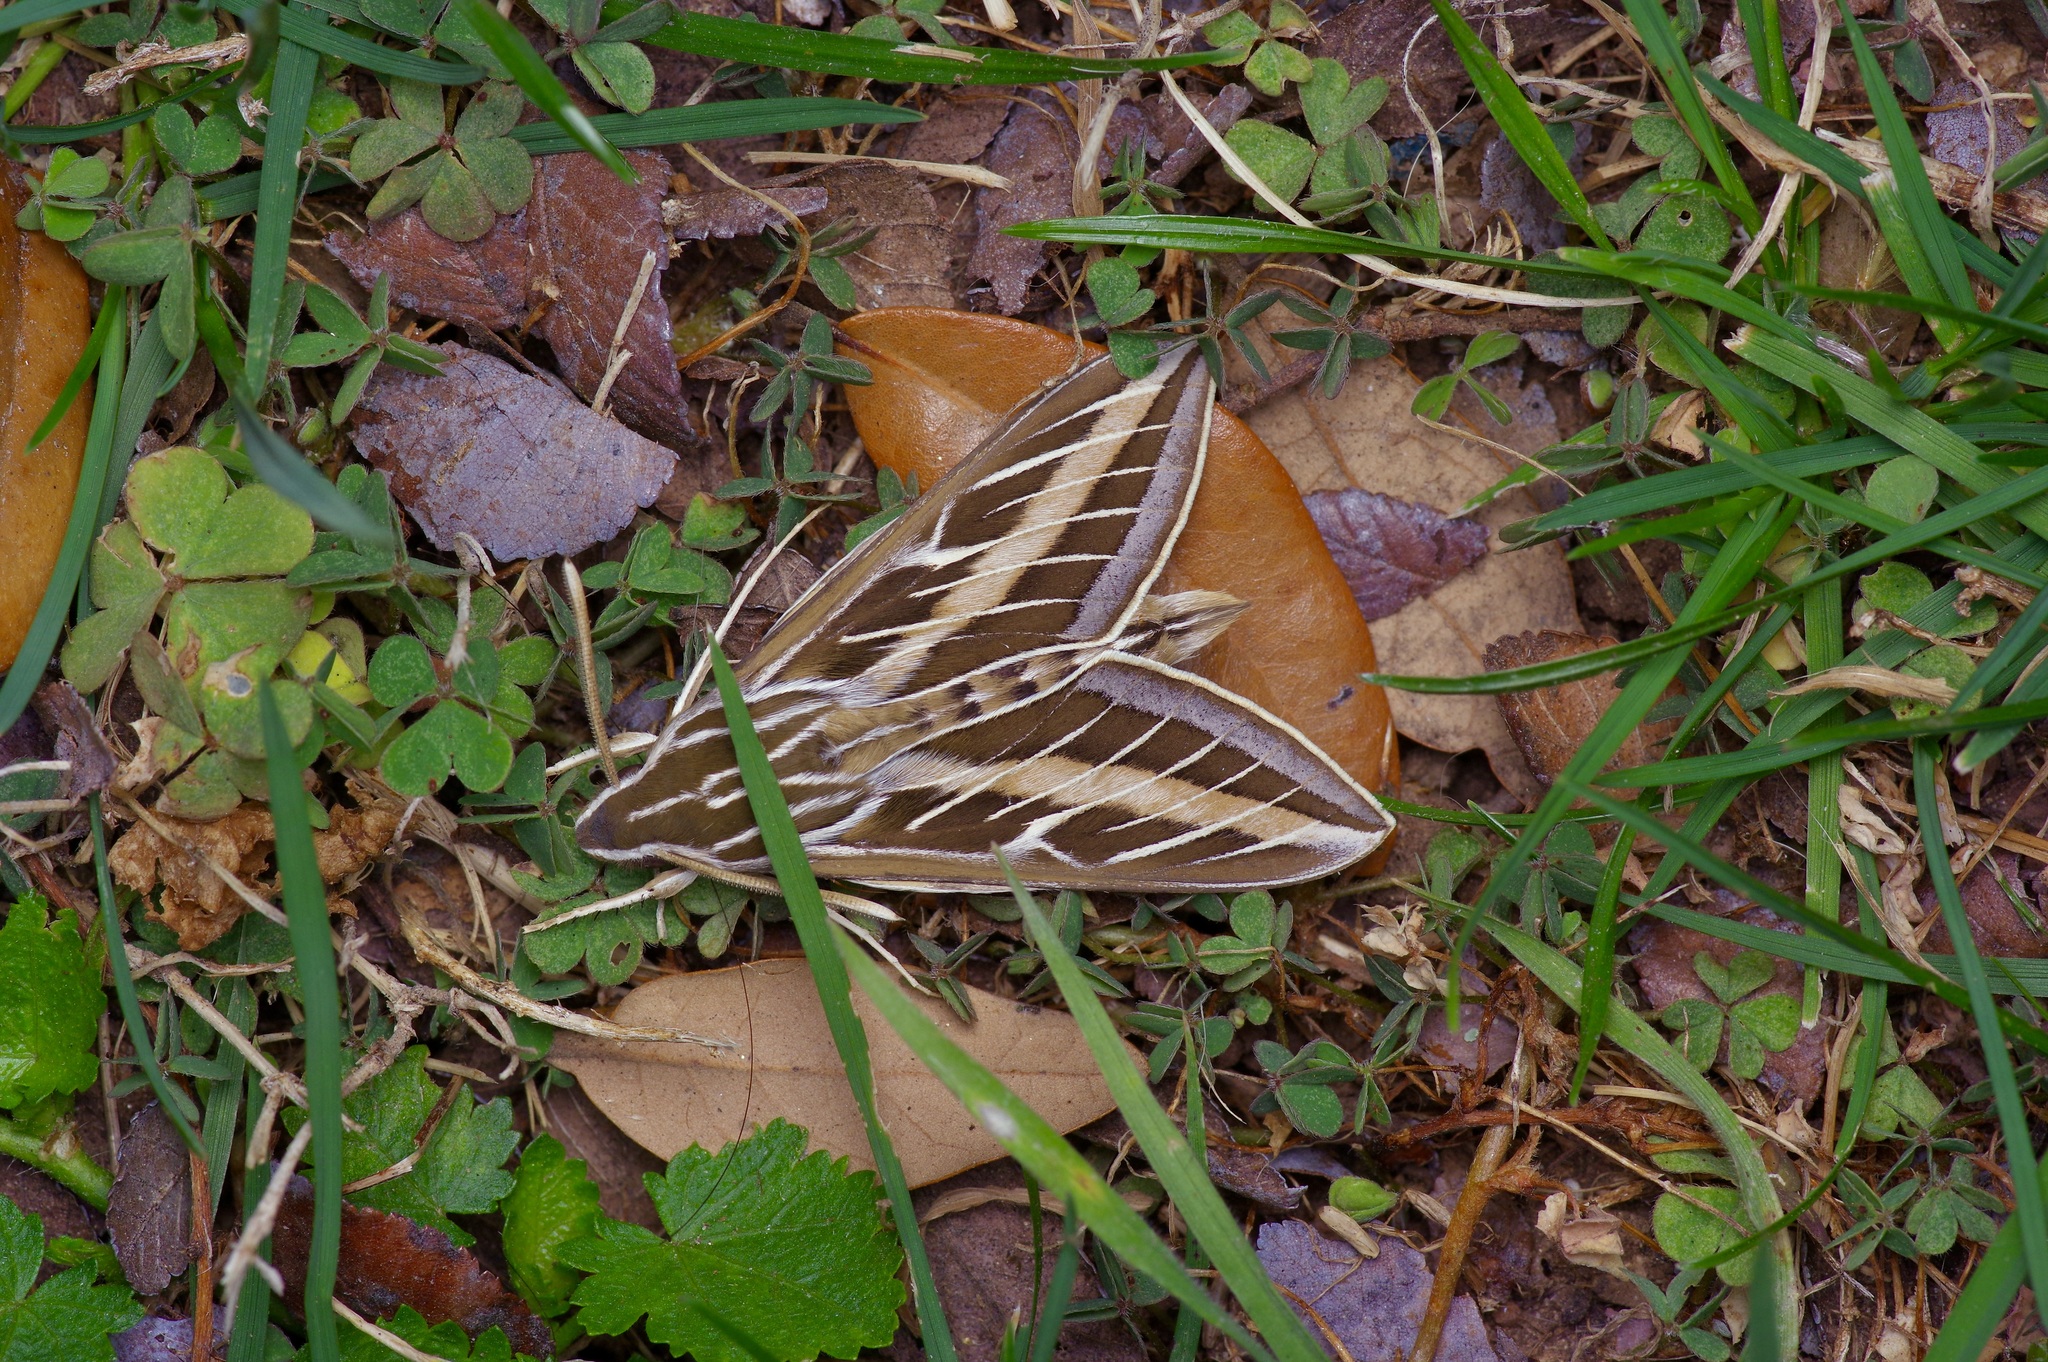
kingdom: Animalia
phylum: Arthropoda
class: Insecta
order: Lepidoptera
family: Sphingidae
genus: Hyles
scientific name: Hyles lineata
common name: White-lined sphinx
